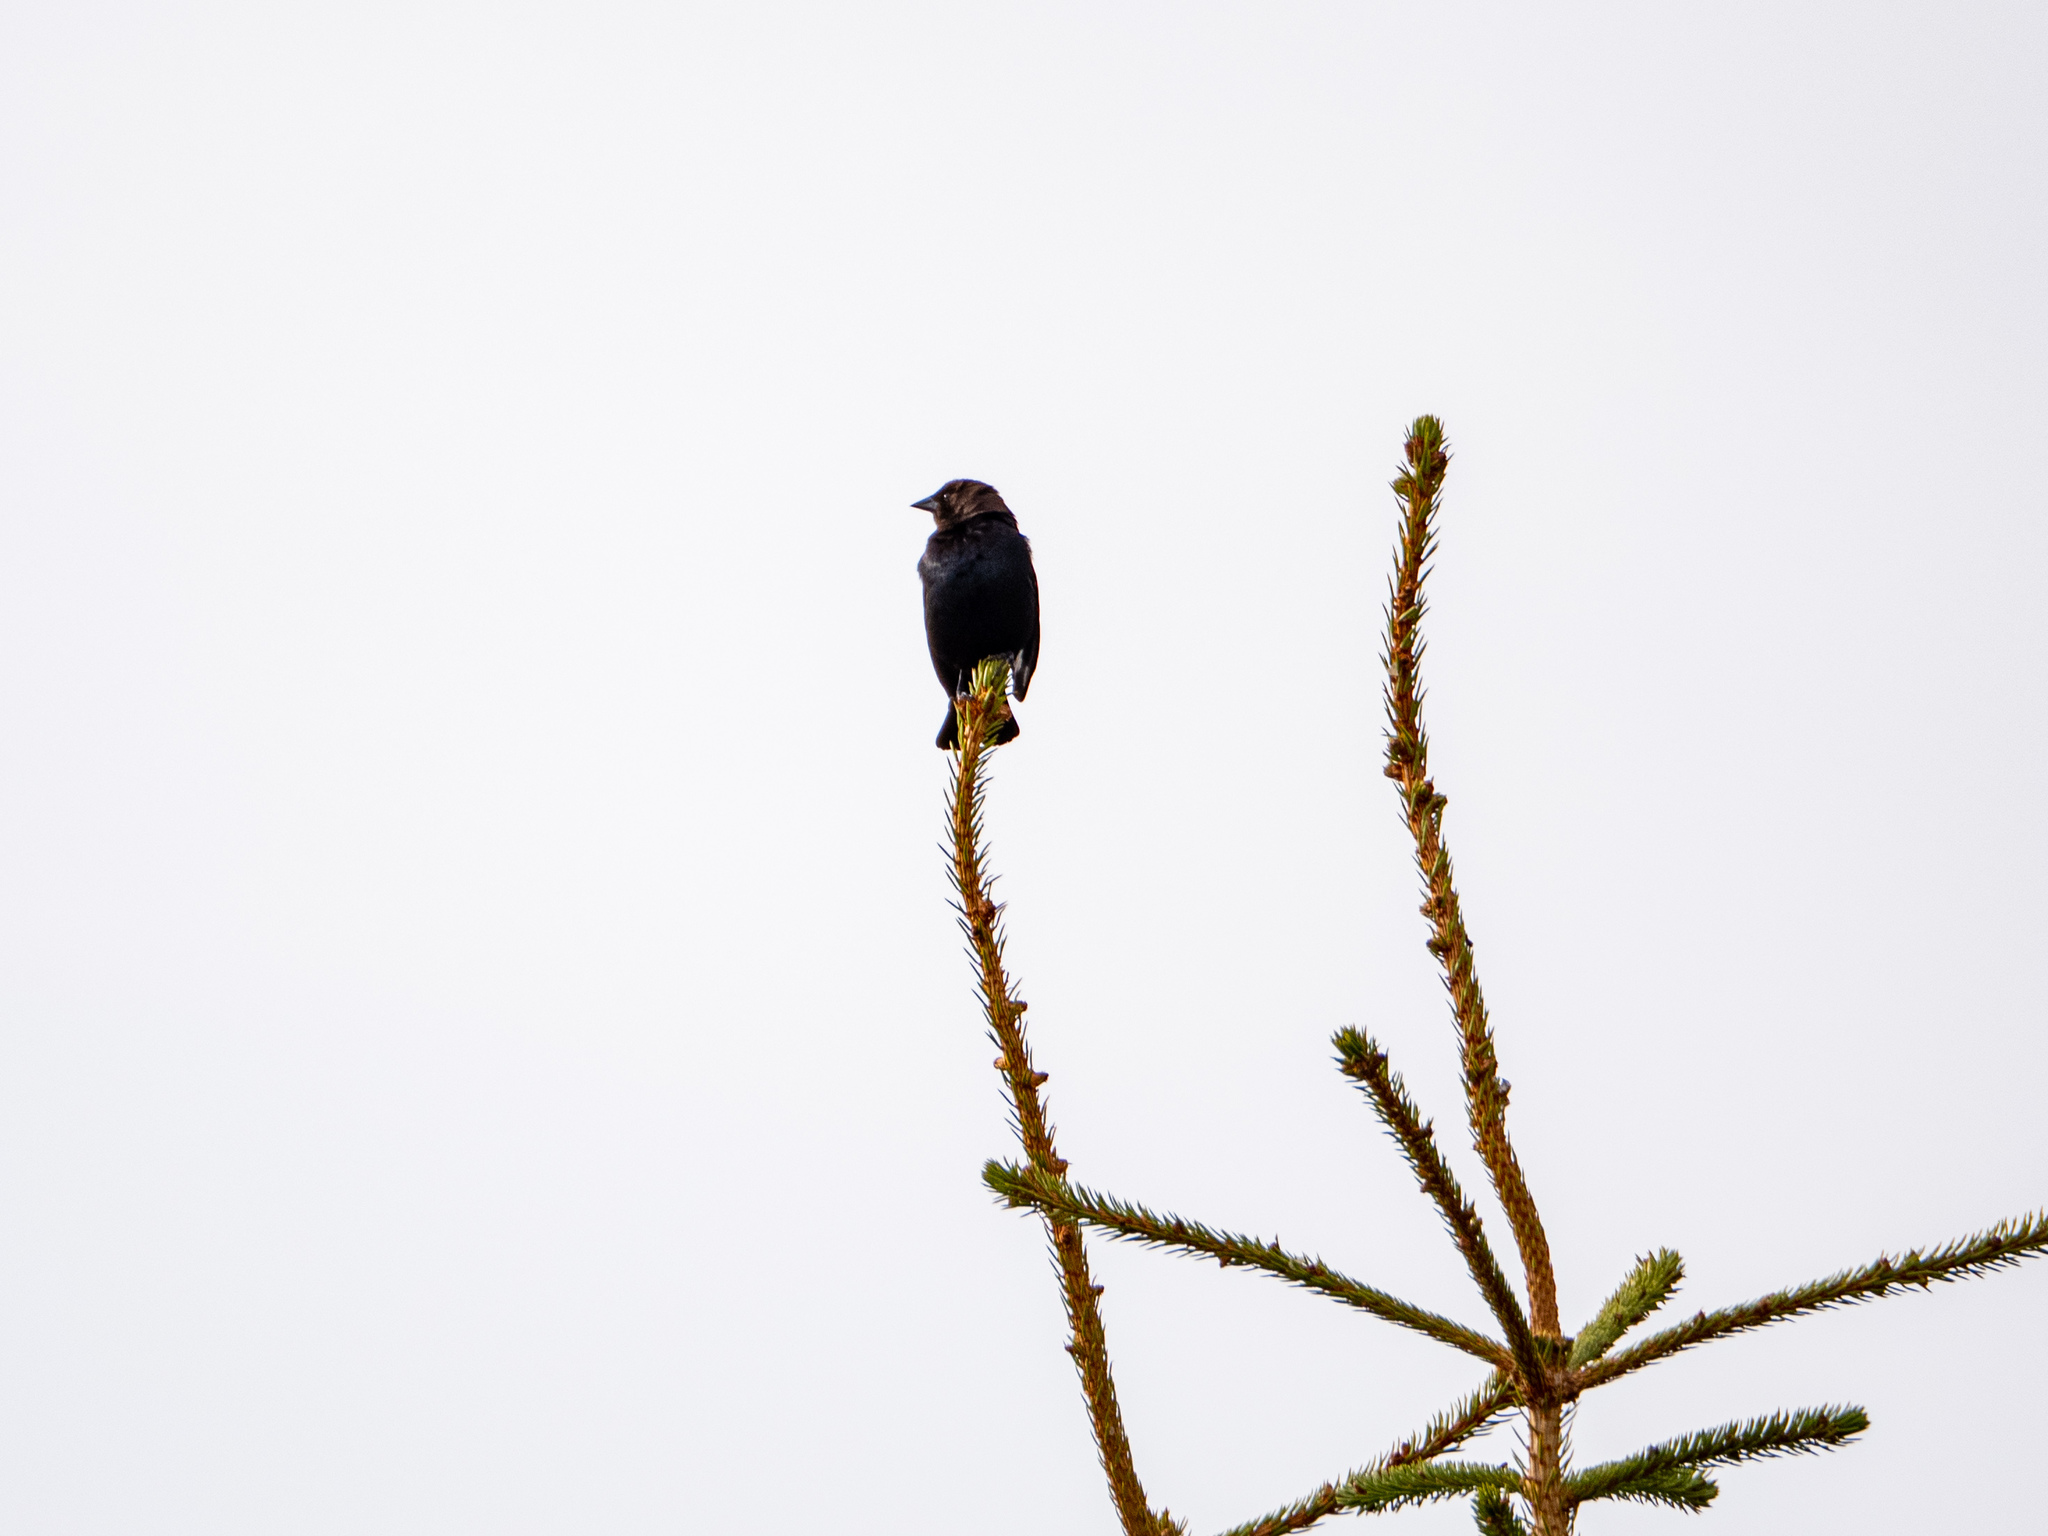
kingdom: Animalia
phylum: Chordata
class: Aves
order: Passeriformes
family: Icteridae
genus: Molothrus
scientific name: Molothrus ater
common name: Brown-headed cowbird
